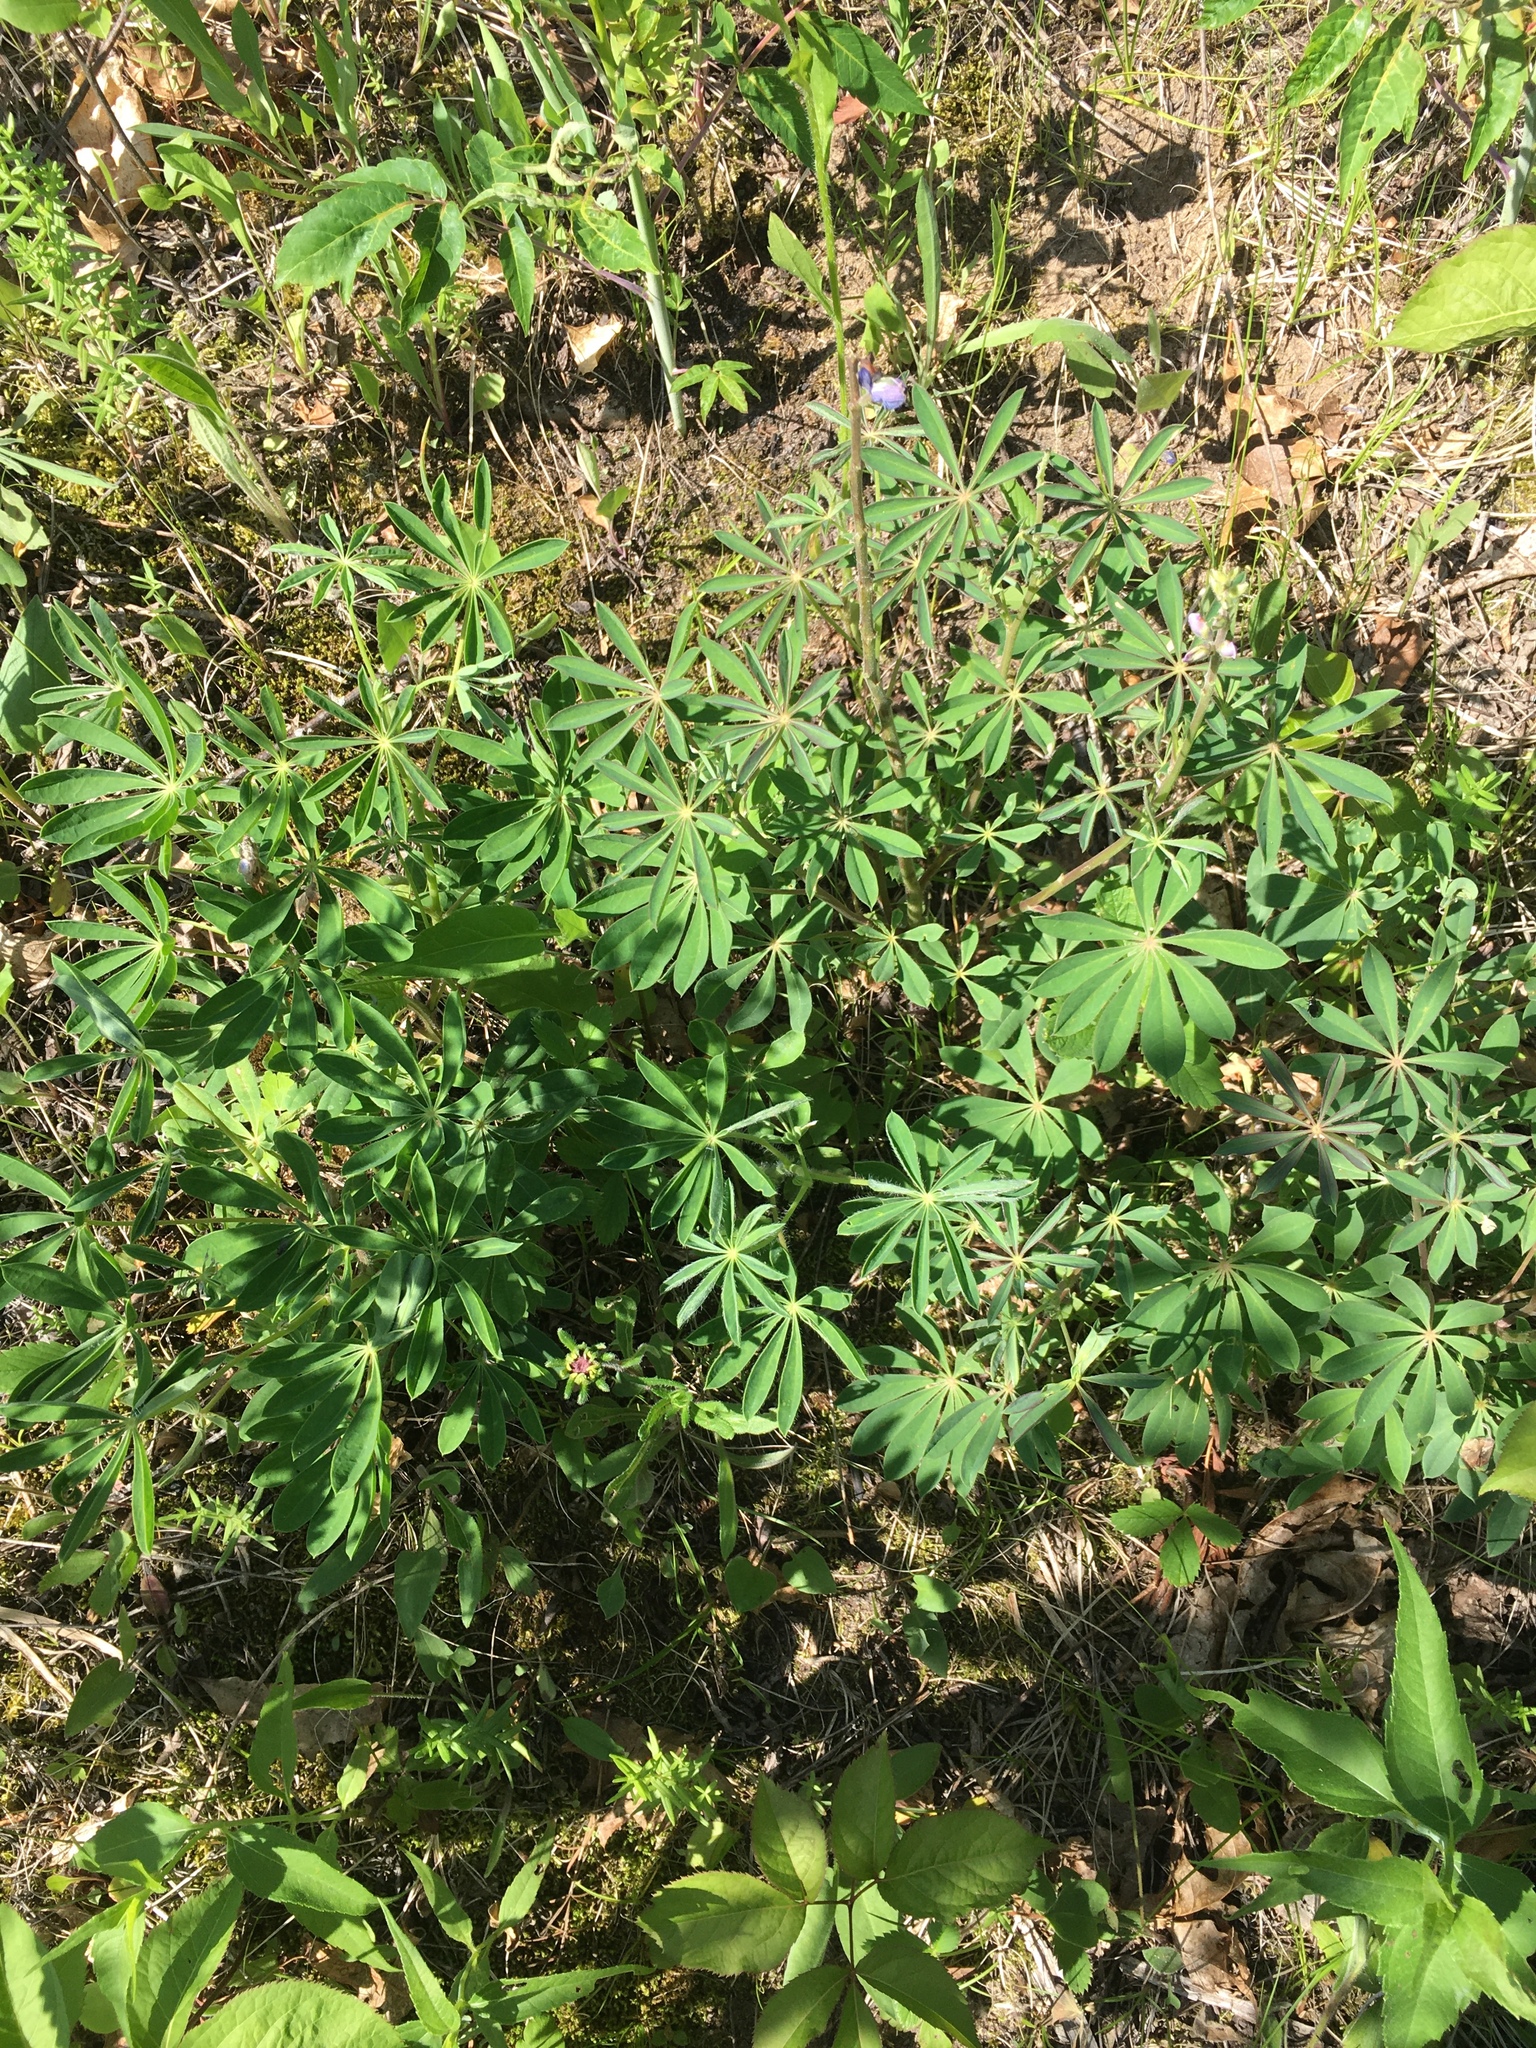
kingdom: Plantae
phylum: Tracheophyta
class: Magnoliopsida
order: Fabales
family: Fabaceae
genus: Lupinus
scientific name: Lupinus perennis
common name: Sundial lupine
